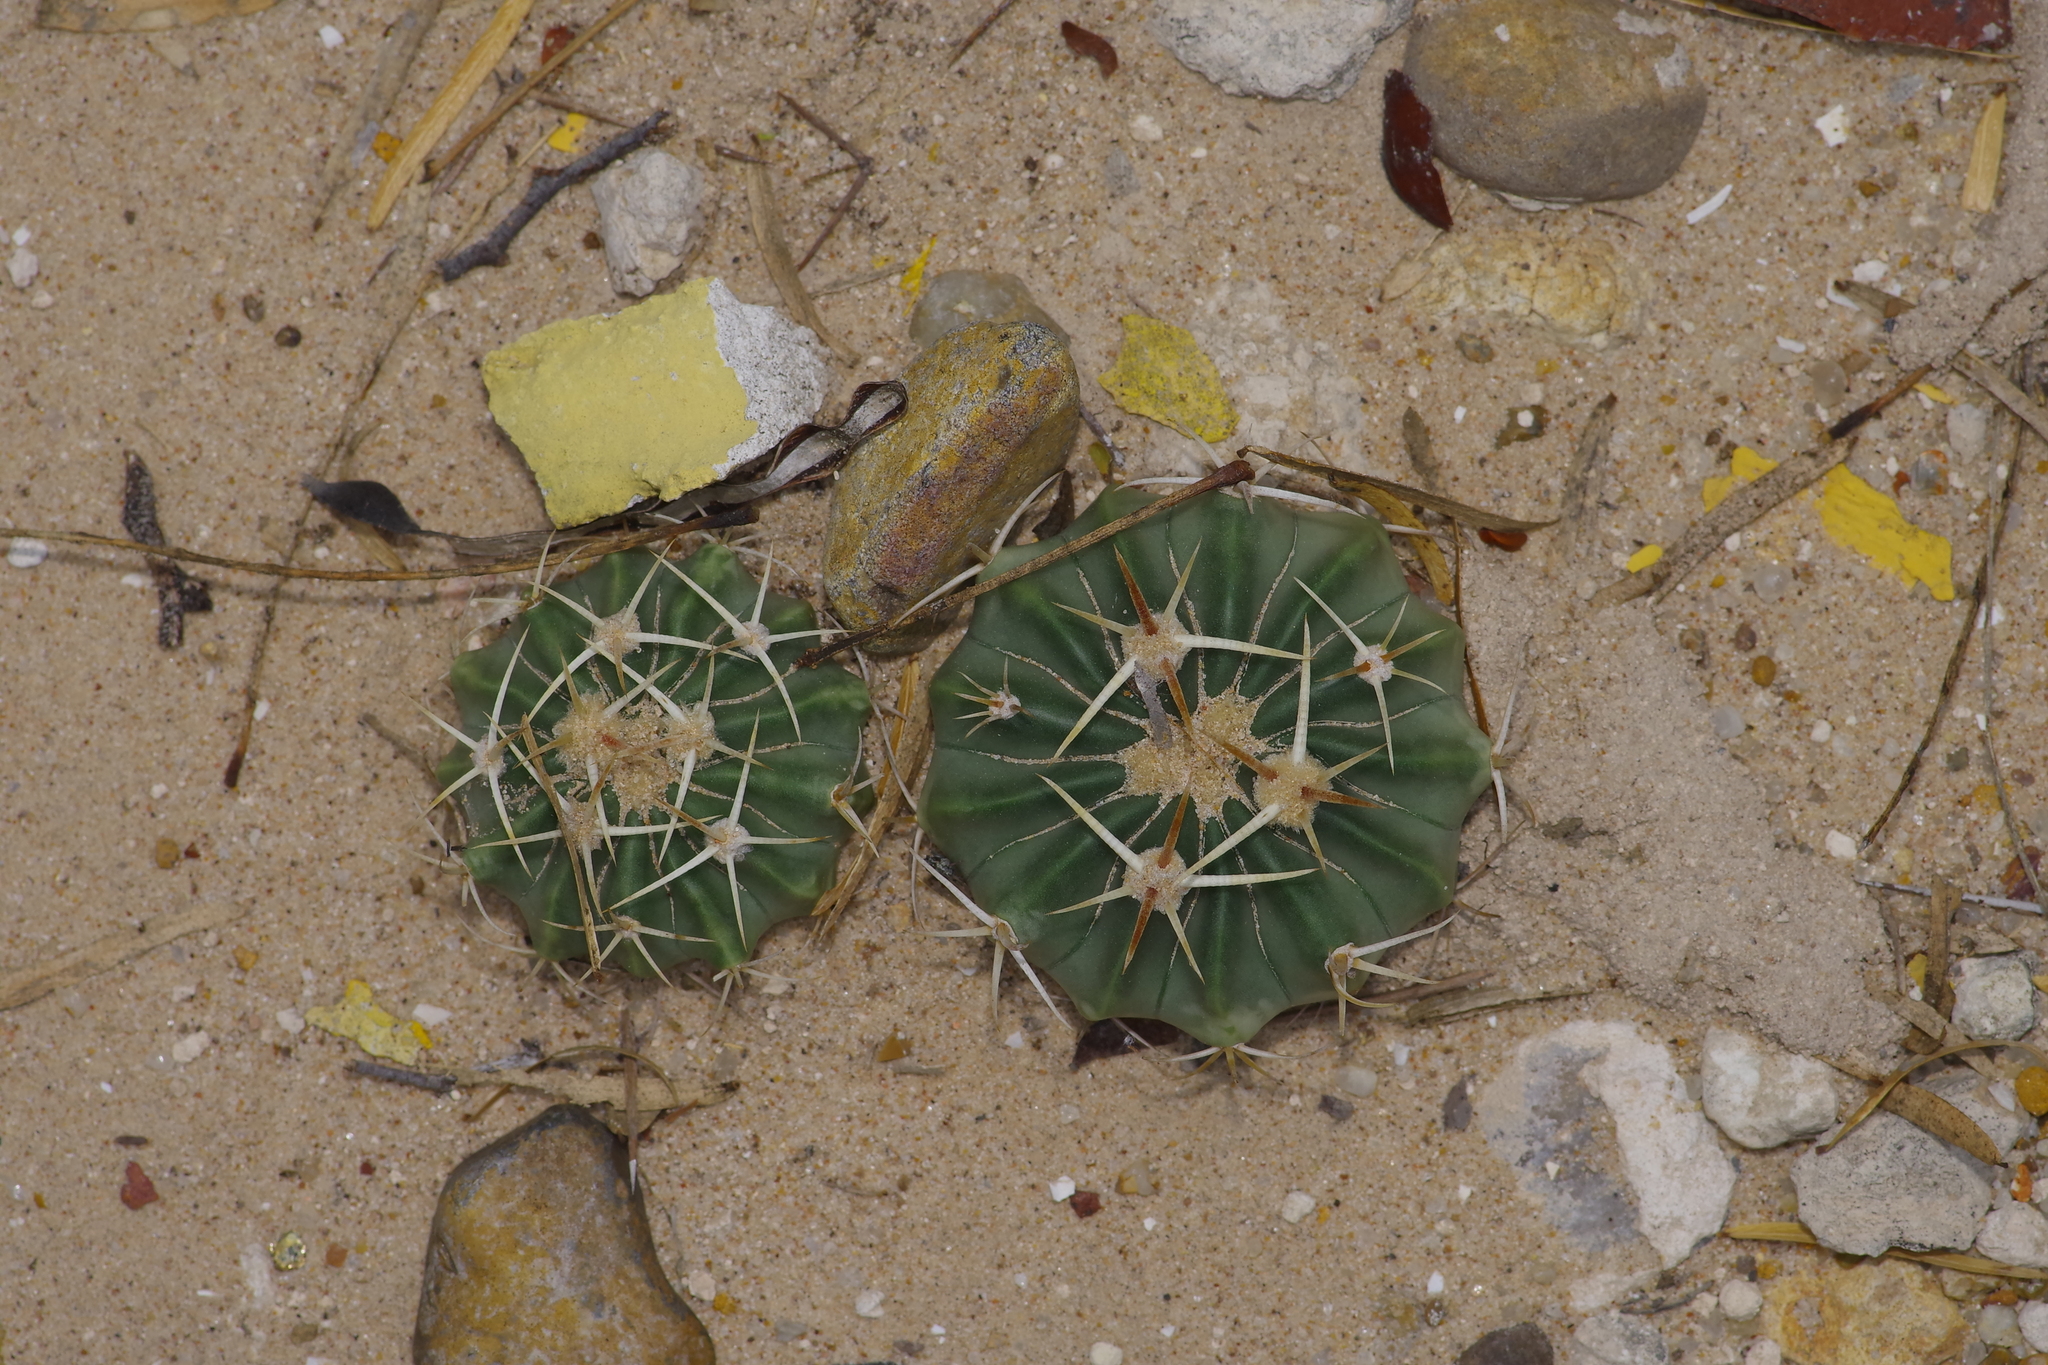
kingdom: Plantae
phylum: Tracheophyta
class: Magnoliopsida
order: Caryophyllales
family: Cactaceae
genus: Echinocactus
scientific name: Echinocactus texensis
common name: Devil's pincushion
